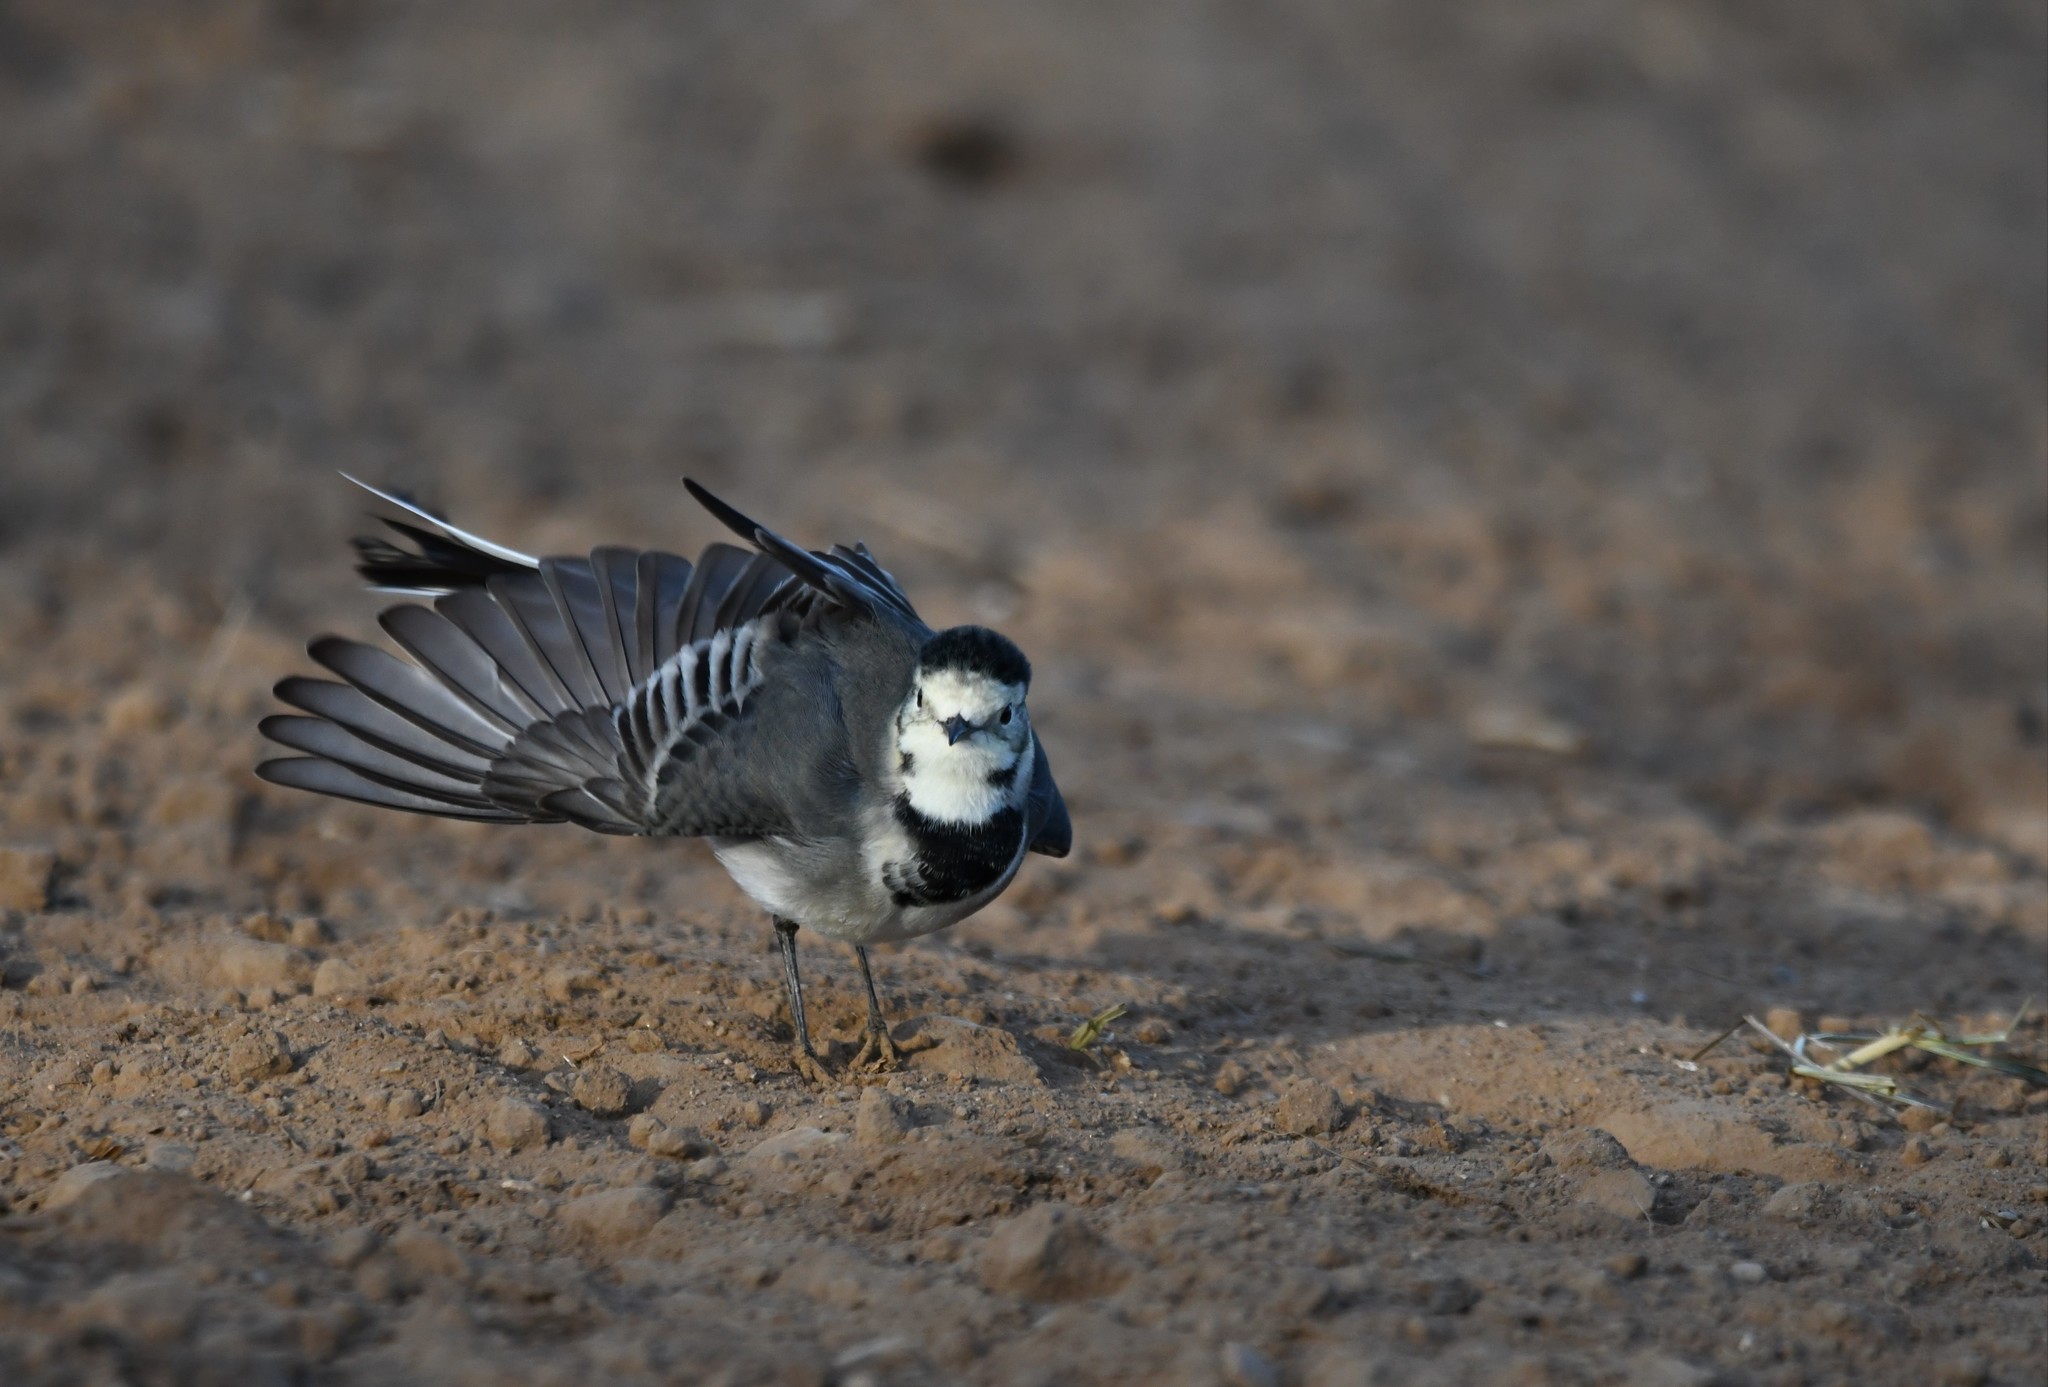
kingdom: Animalia
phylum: Chordata
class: Aves
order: Passeriformes
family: Motacillidae
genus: Motacilla
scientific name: Motacilla alba
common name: White wagtail
